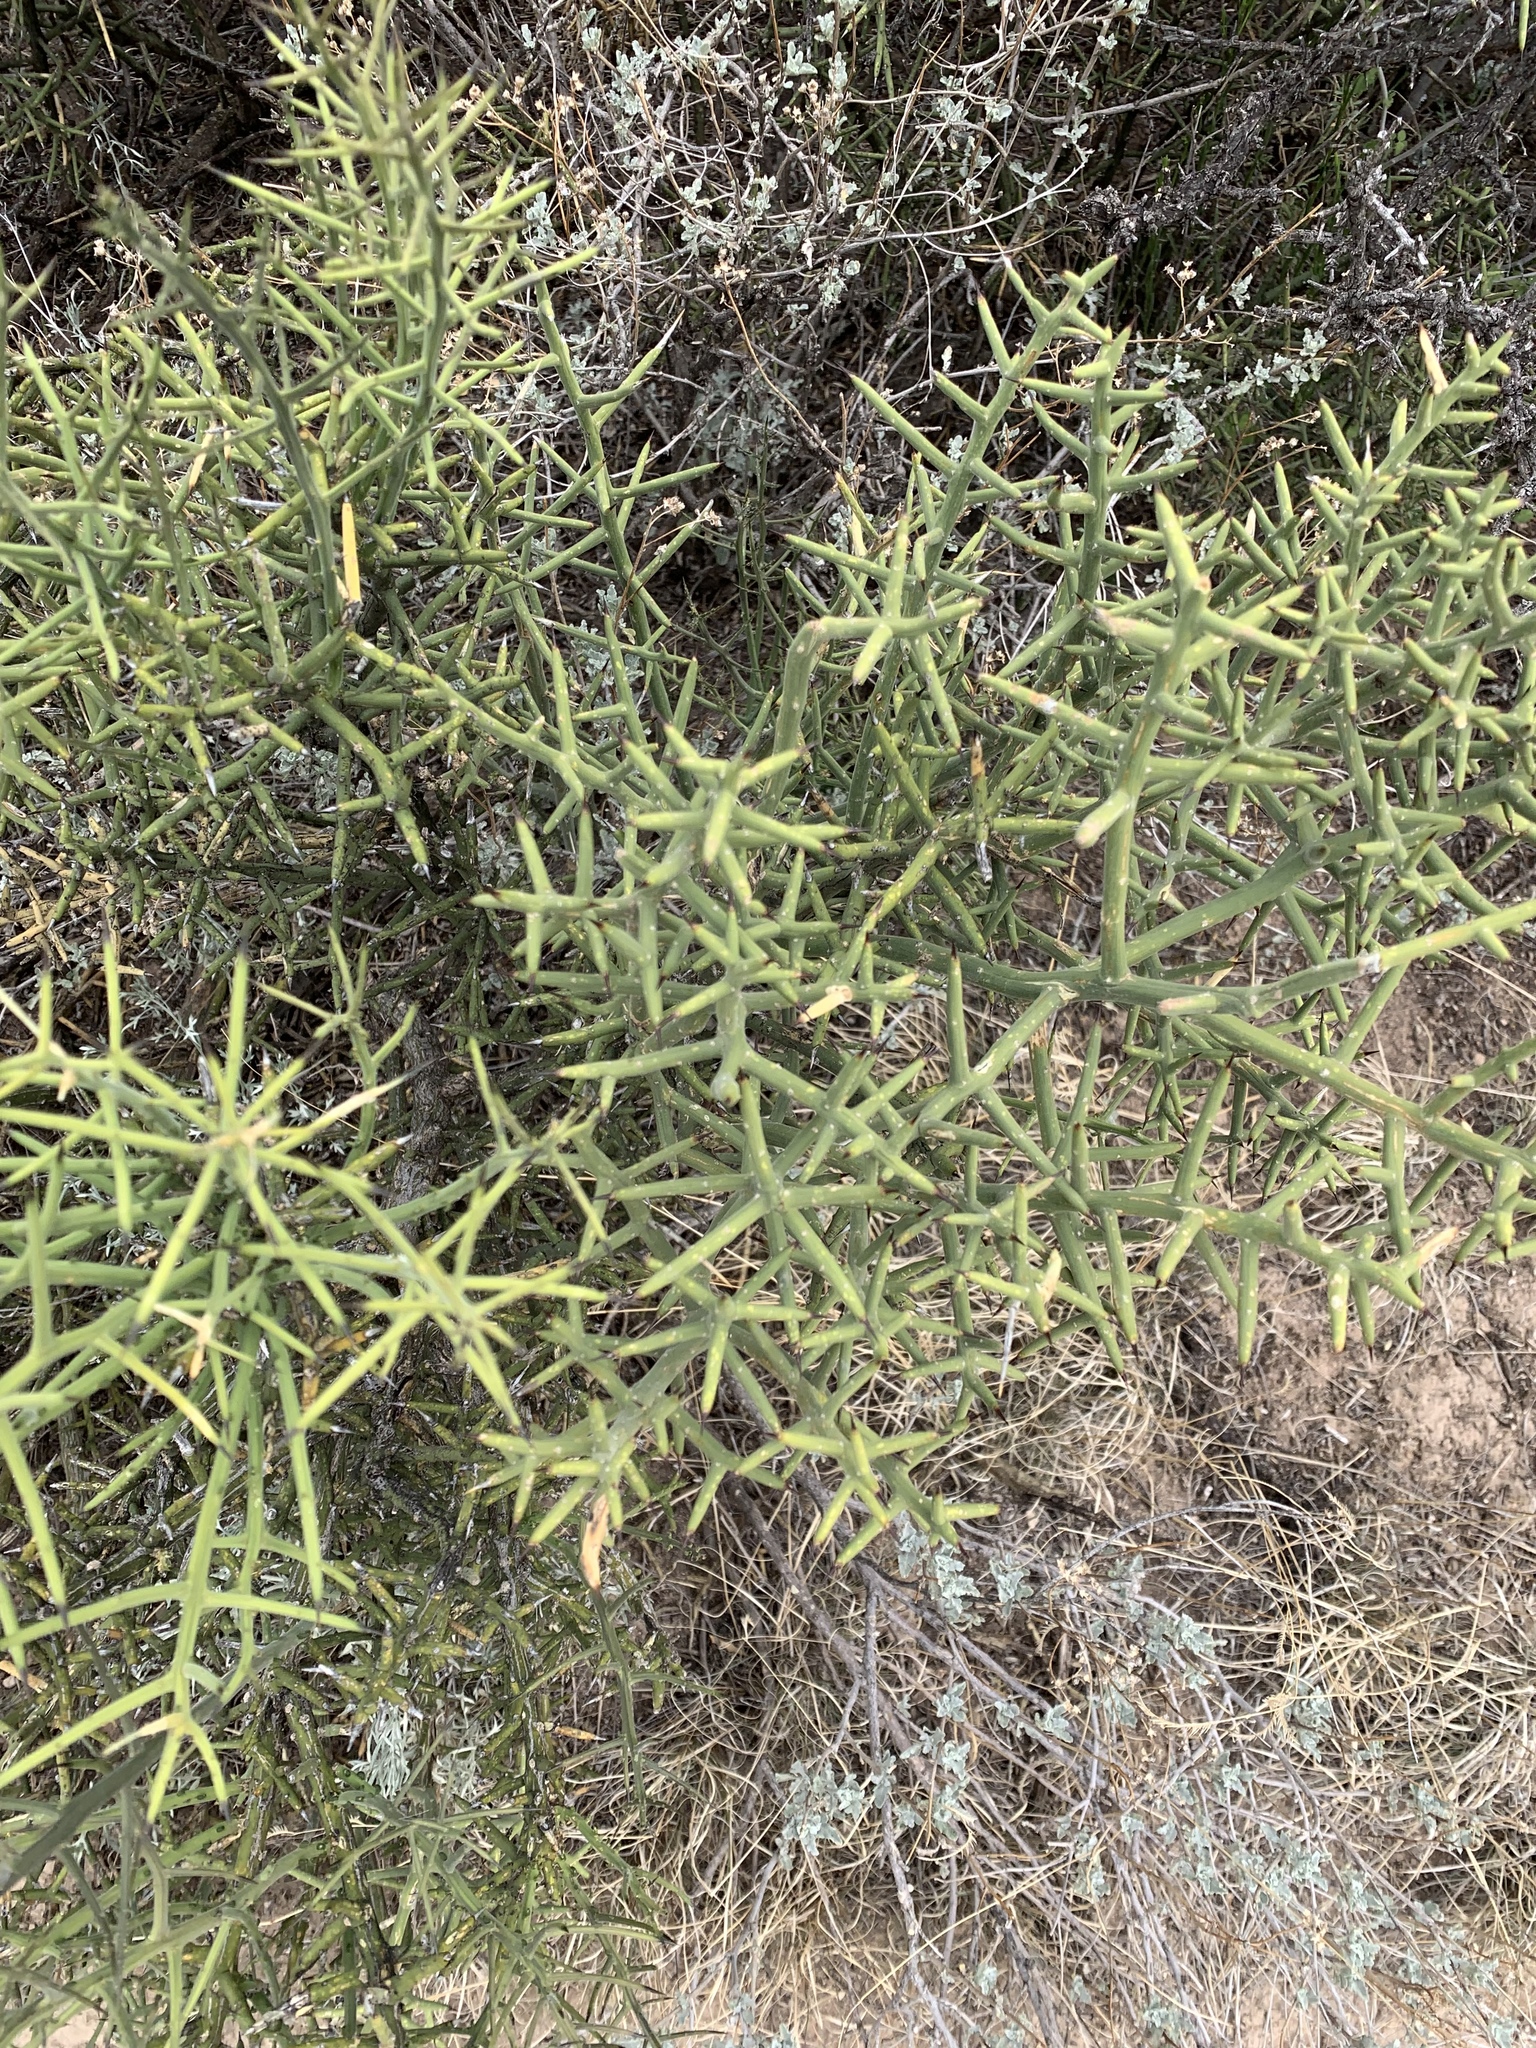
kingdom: Plantae
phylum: Tracheophyta
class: Magnoliopsida
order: Brassicales
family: Koeberliniaceae
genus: Koeberlinia
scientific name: Koeberlinia spinosa
